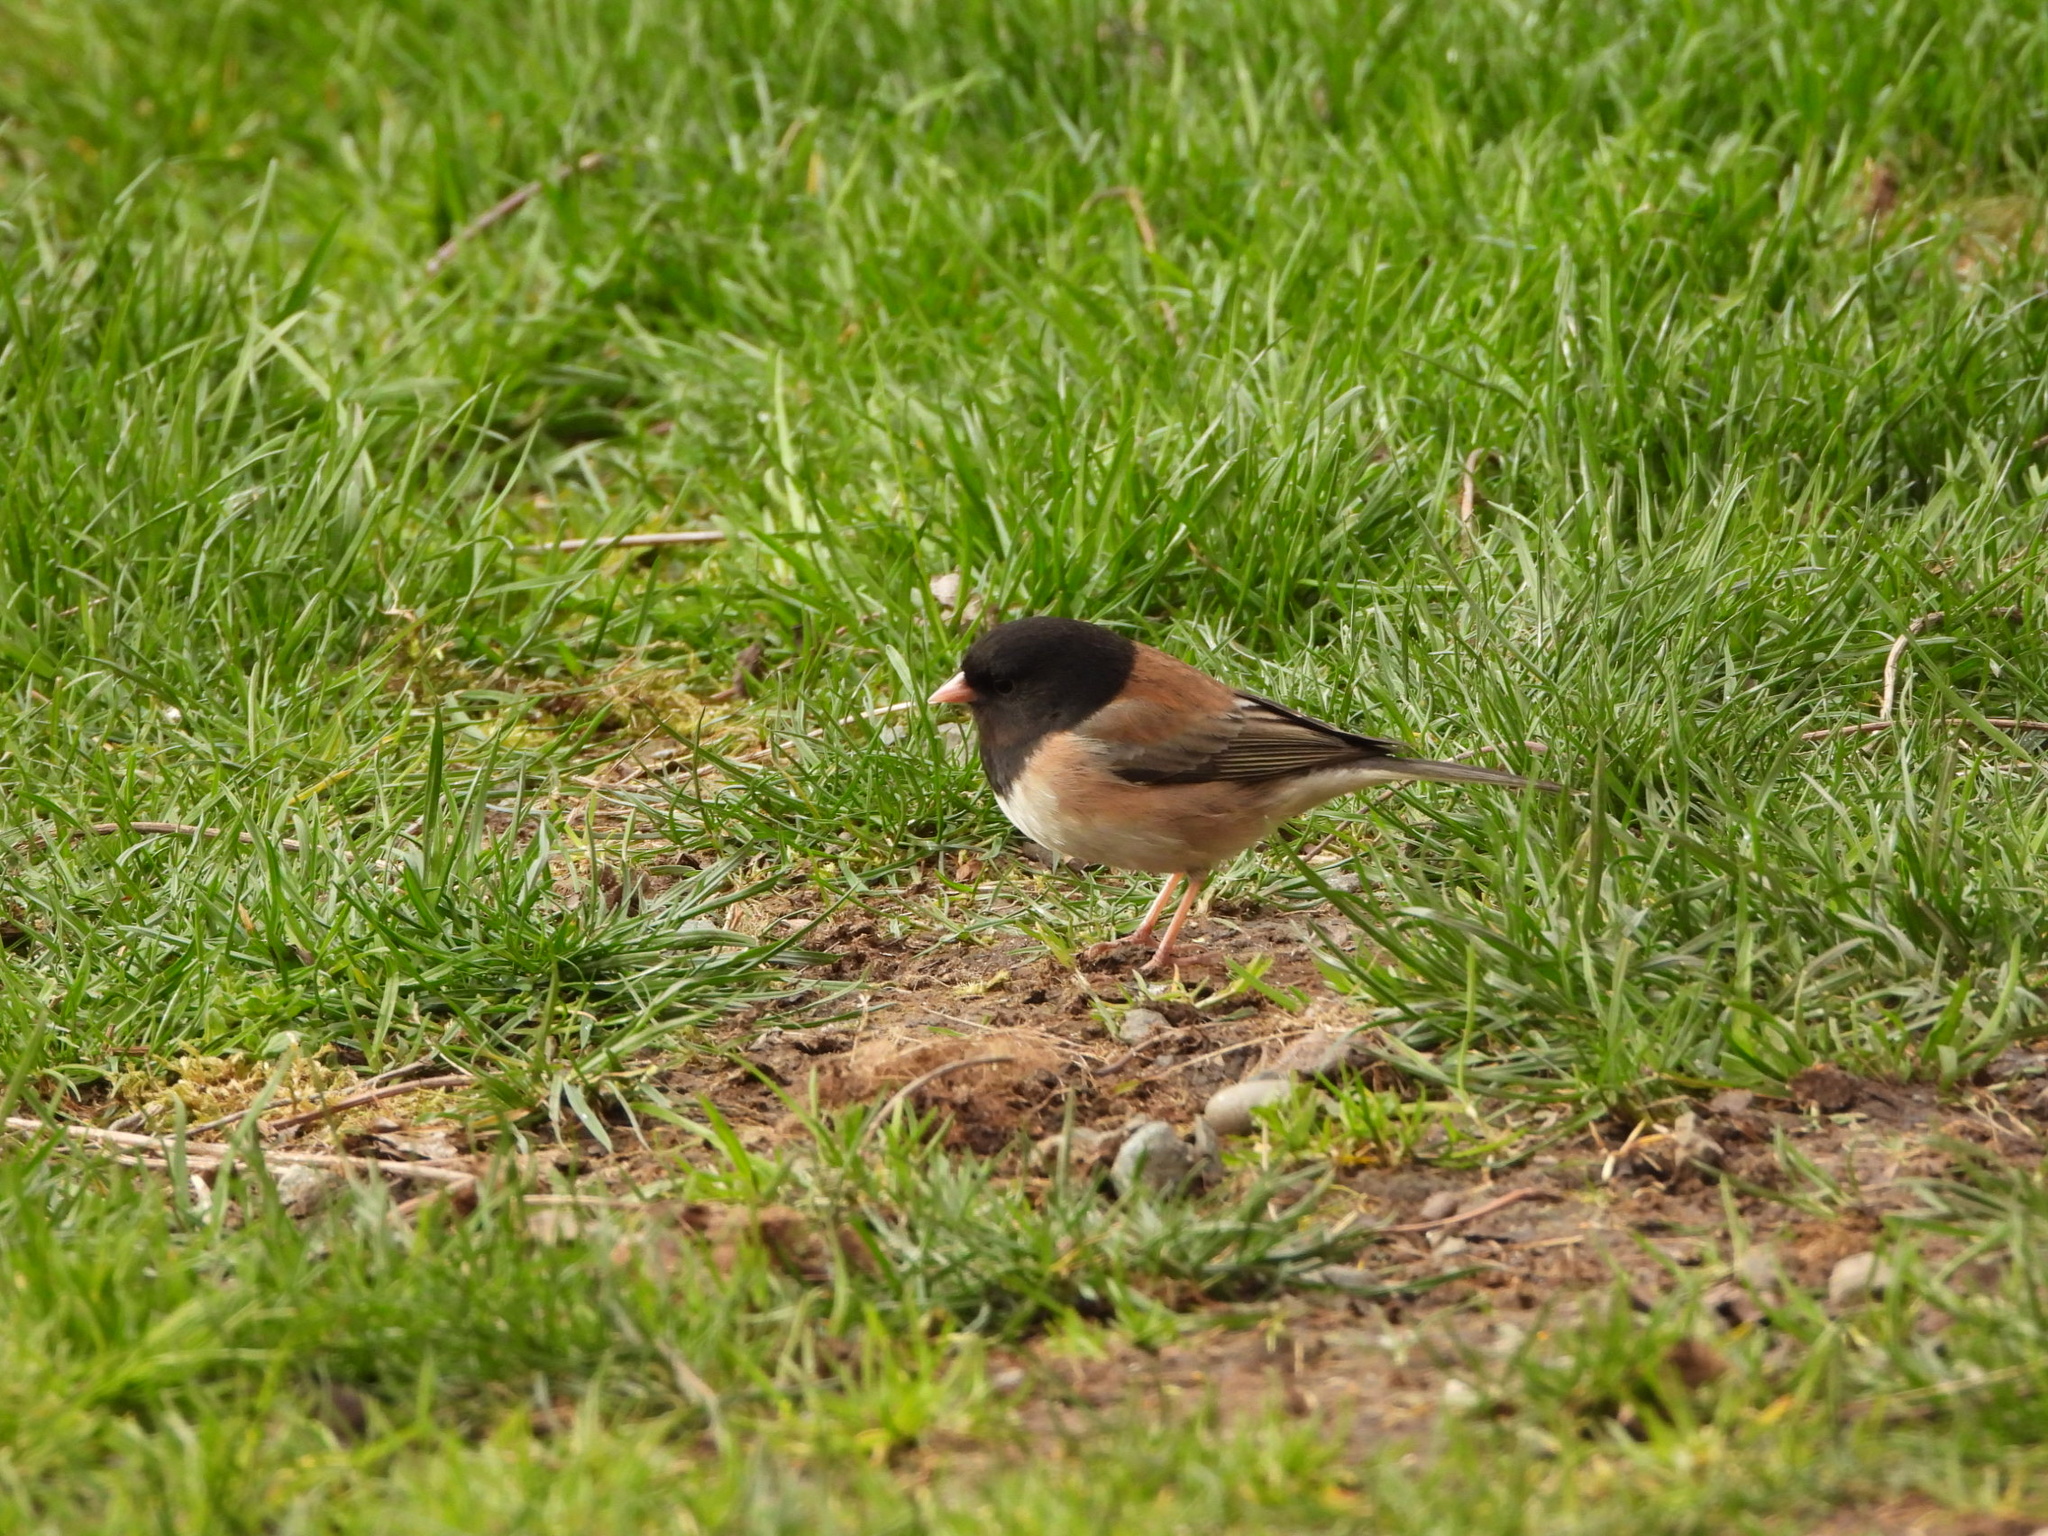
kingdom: Animalia
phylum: Chordata
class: Aves
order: Passeriformes
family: Passerellidae
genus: Junco
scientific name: Junco hyemalis
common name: Dark-eyed junco
